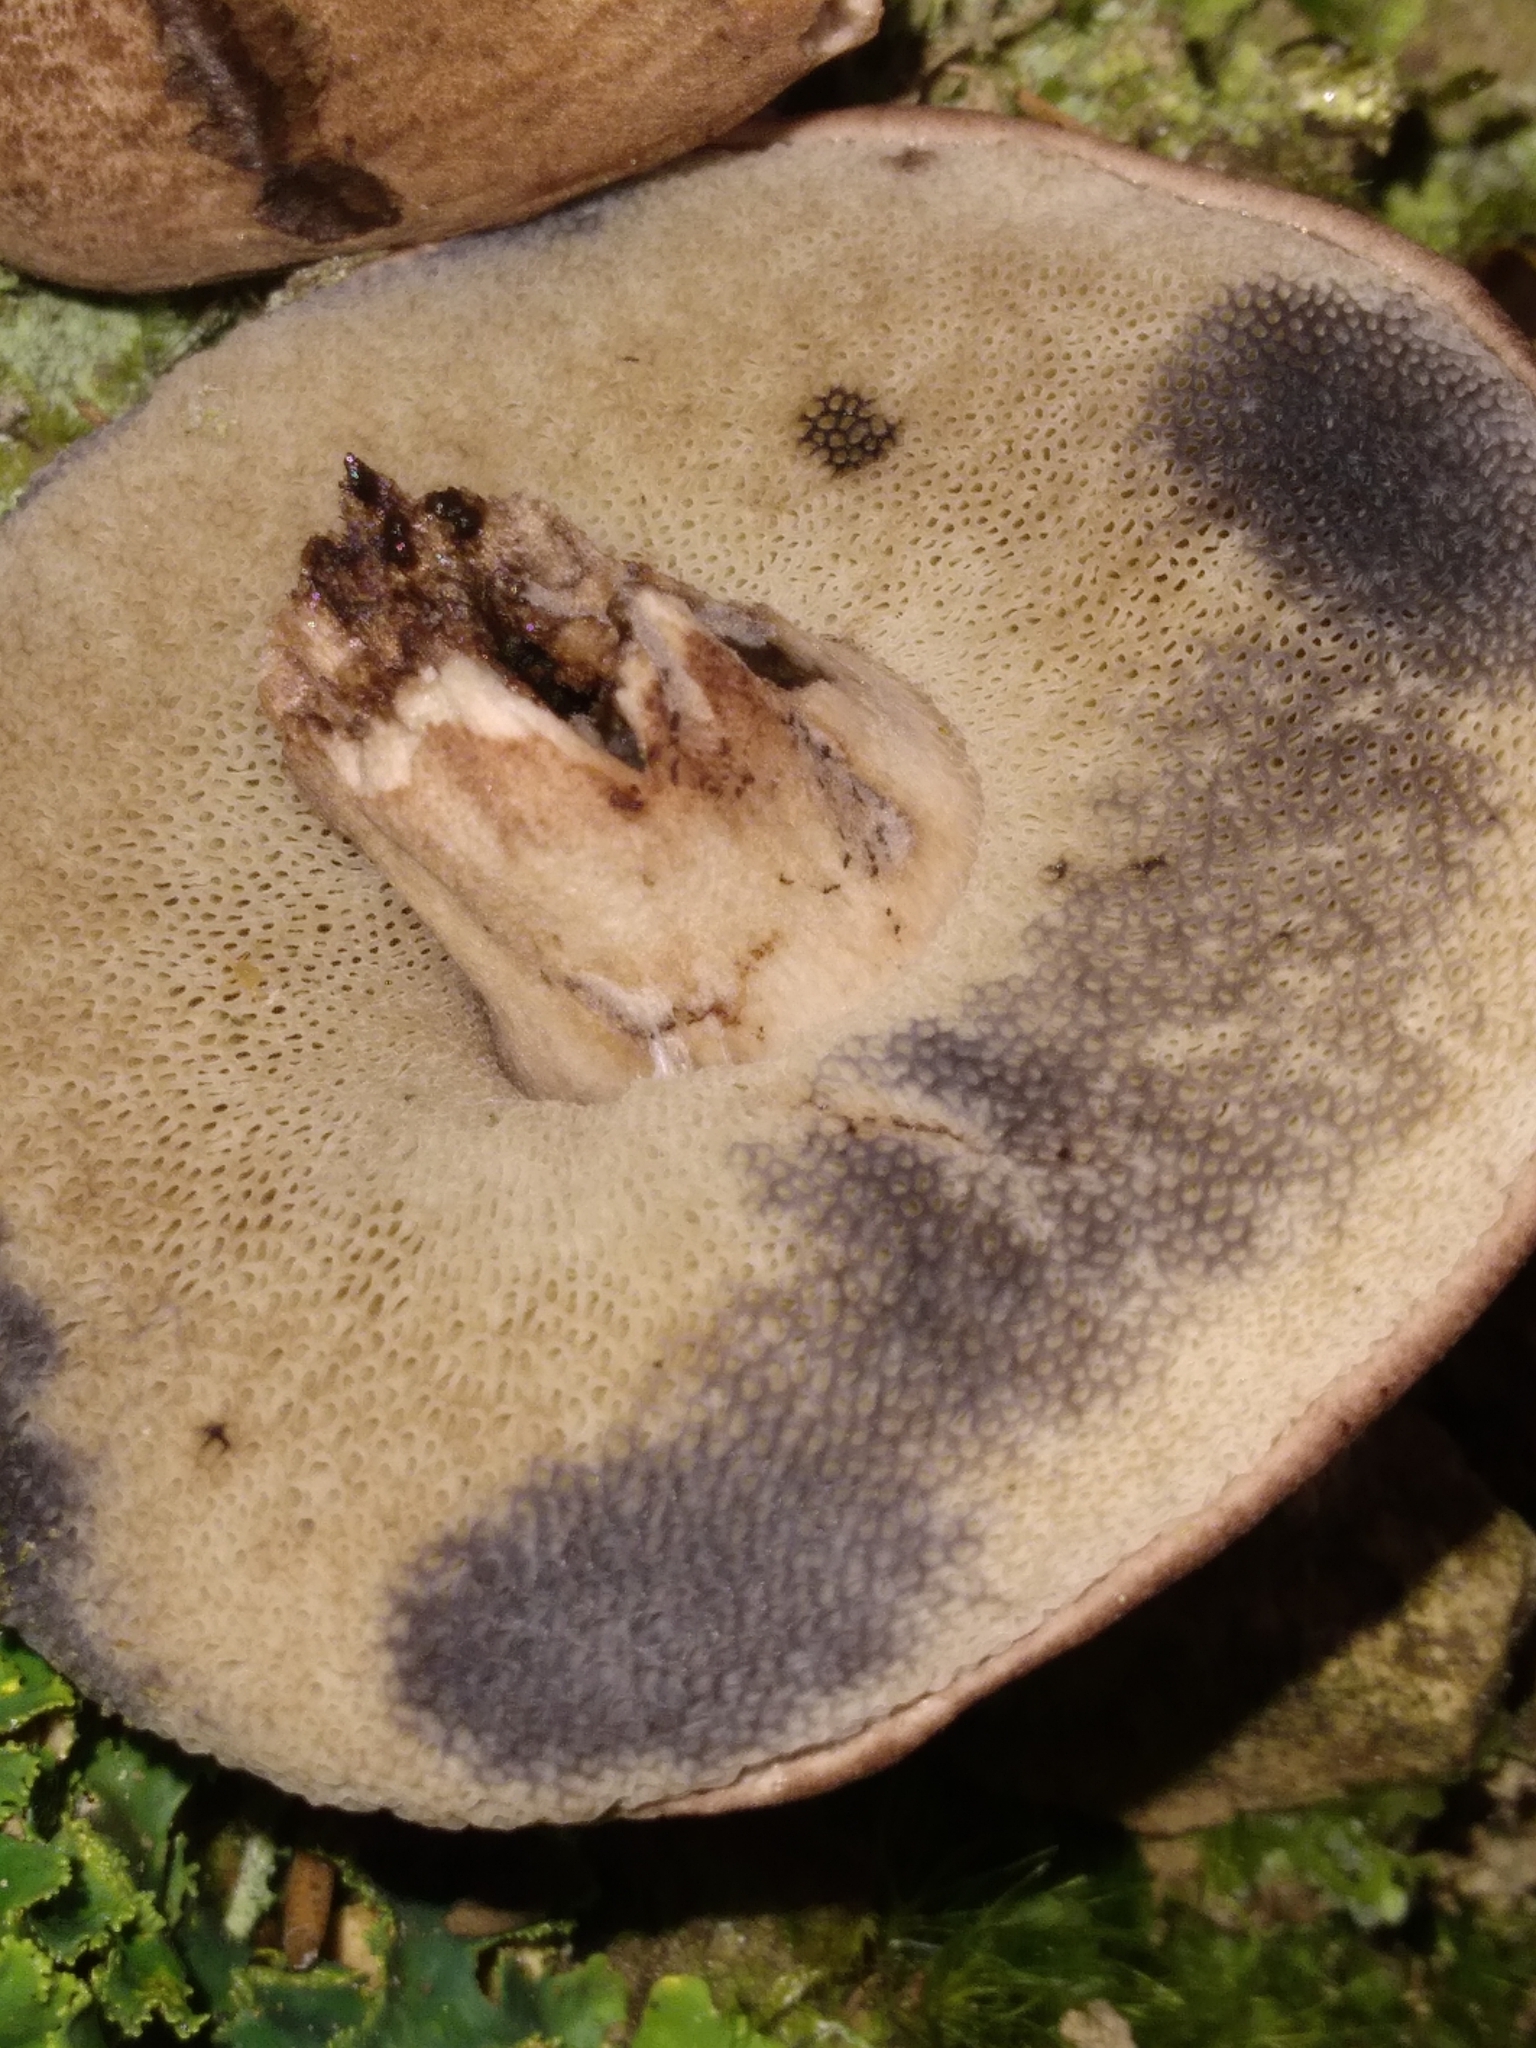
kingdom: Fungi
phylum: Basidiomycota
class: Agaricomycetes
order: Boletales
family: Boletaceae
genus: Porphyrellus
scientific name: Porphyrellus brunneus
